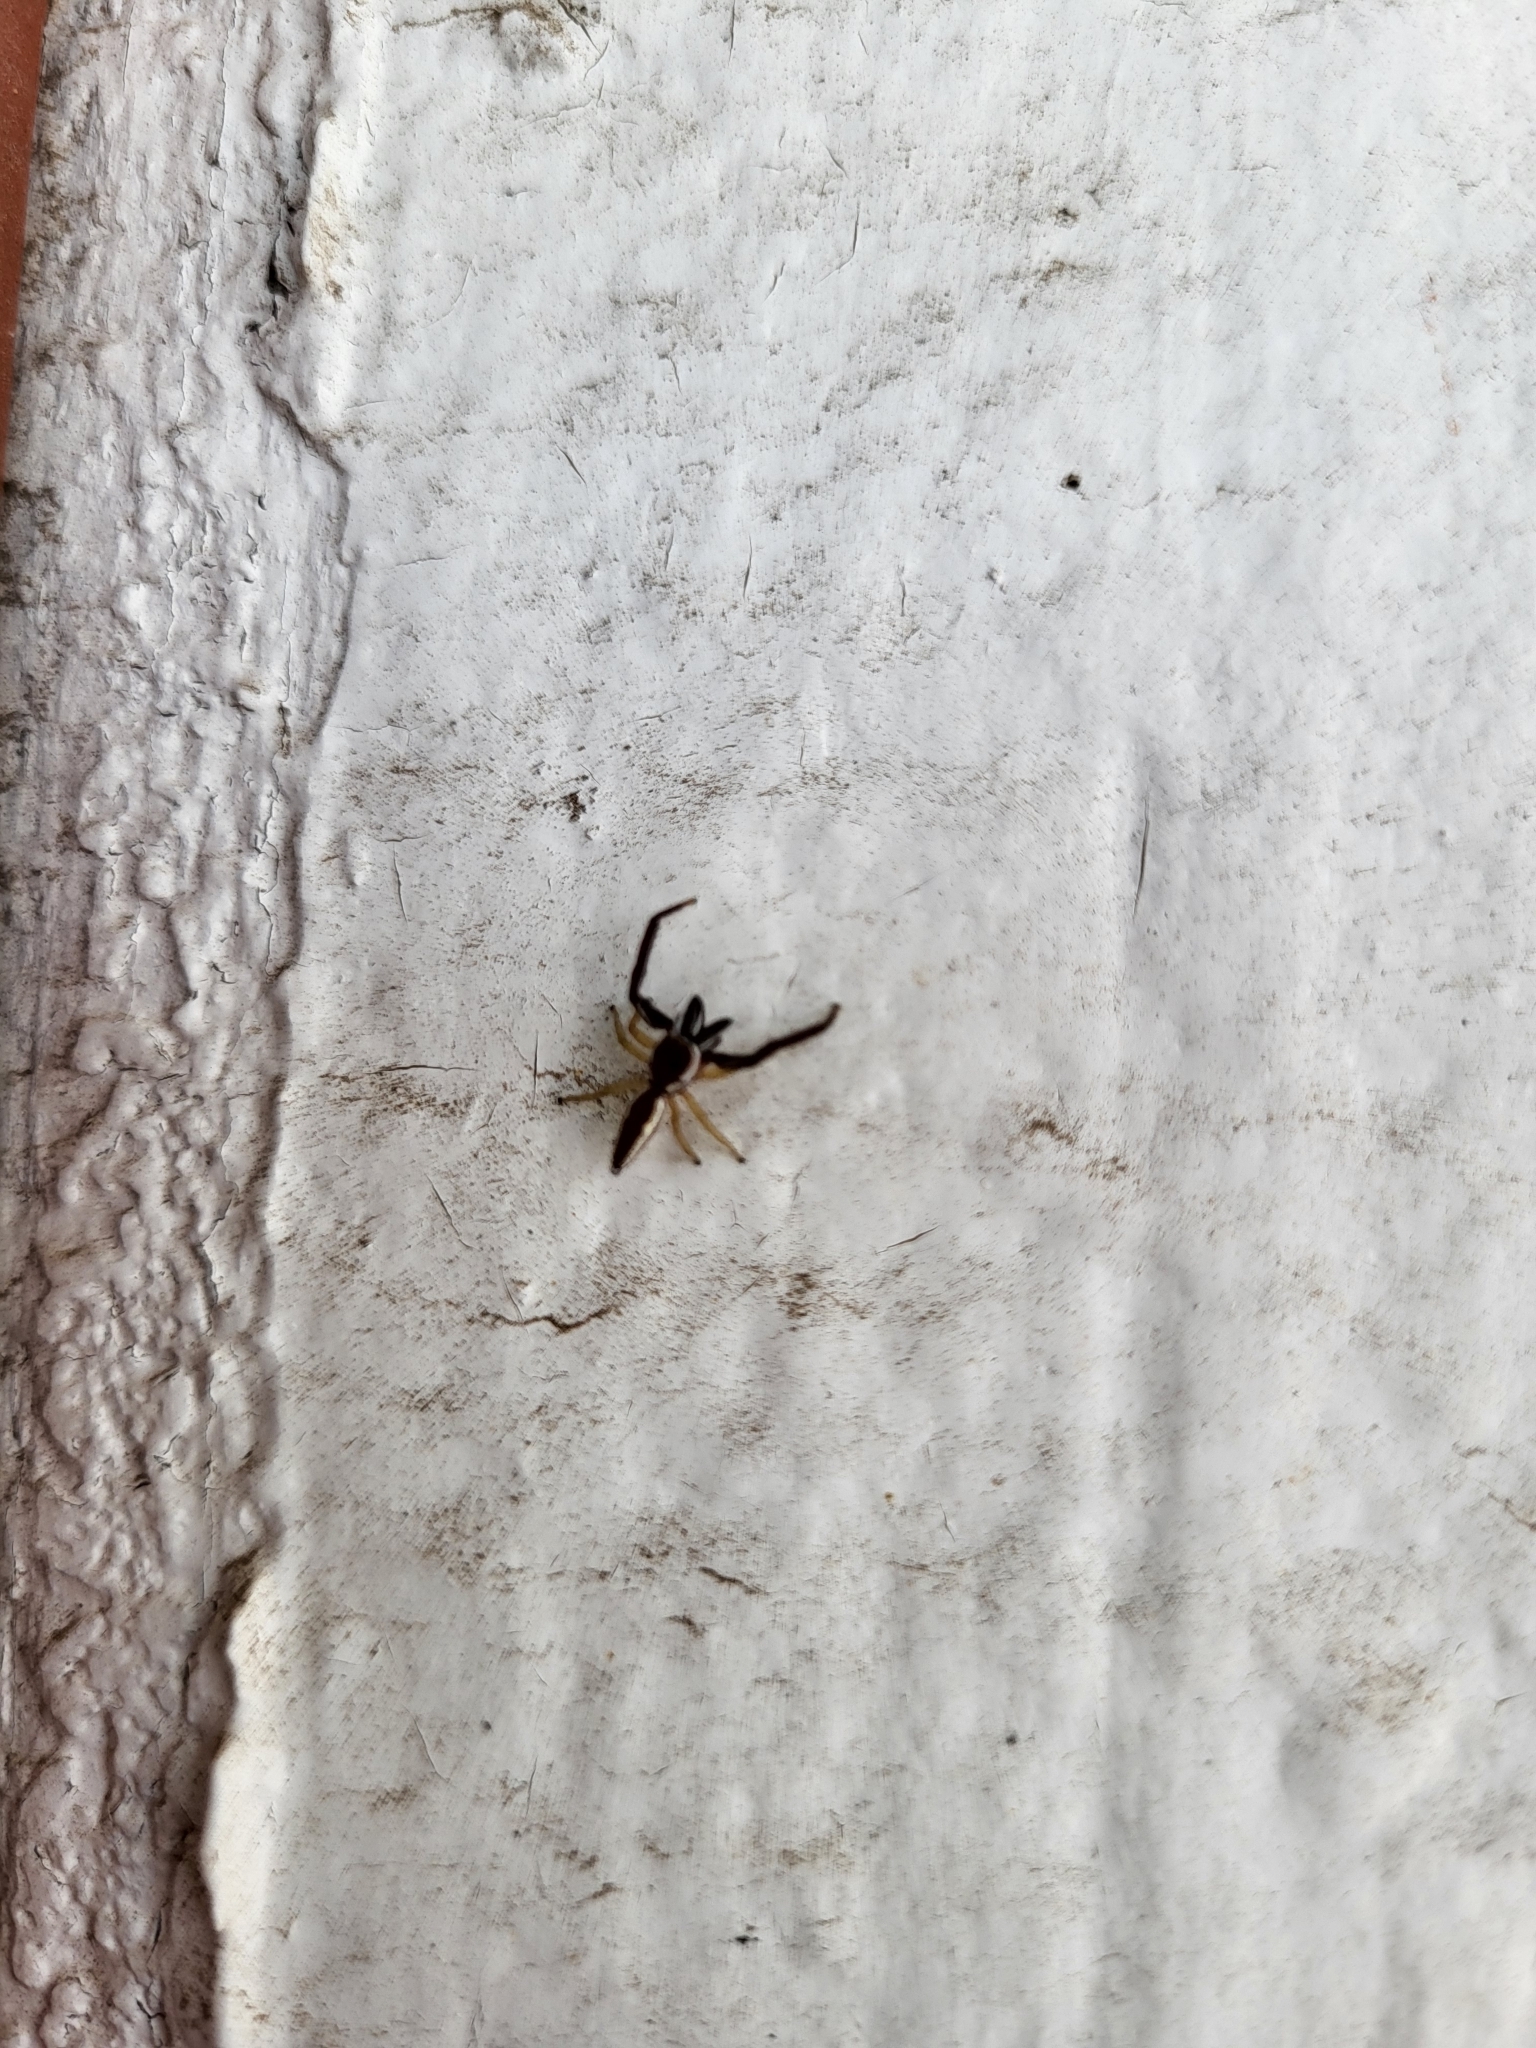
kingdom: Animalia
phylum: Arthropoda
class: Arachnida
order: Araneae
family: Salticidae
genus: Hentzia
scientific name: Hentzia palmarum
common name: Common hentz jumping spider
